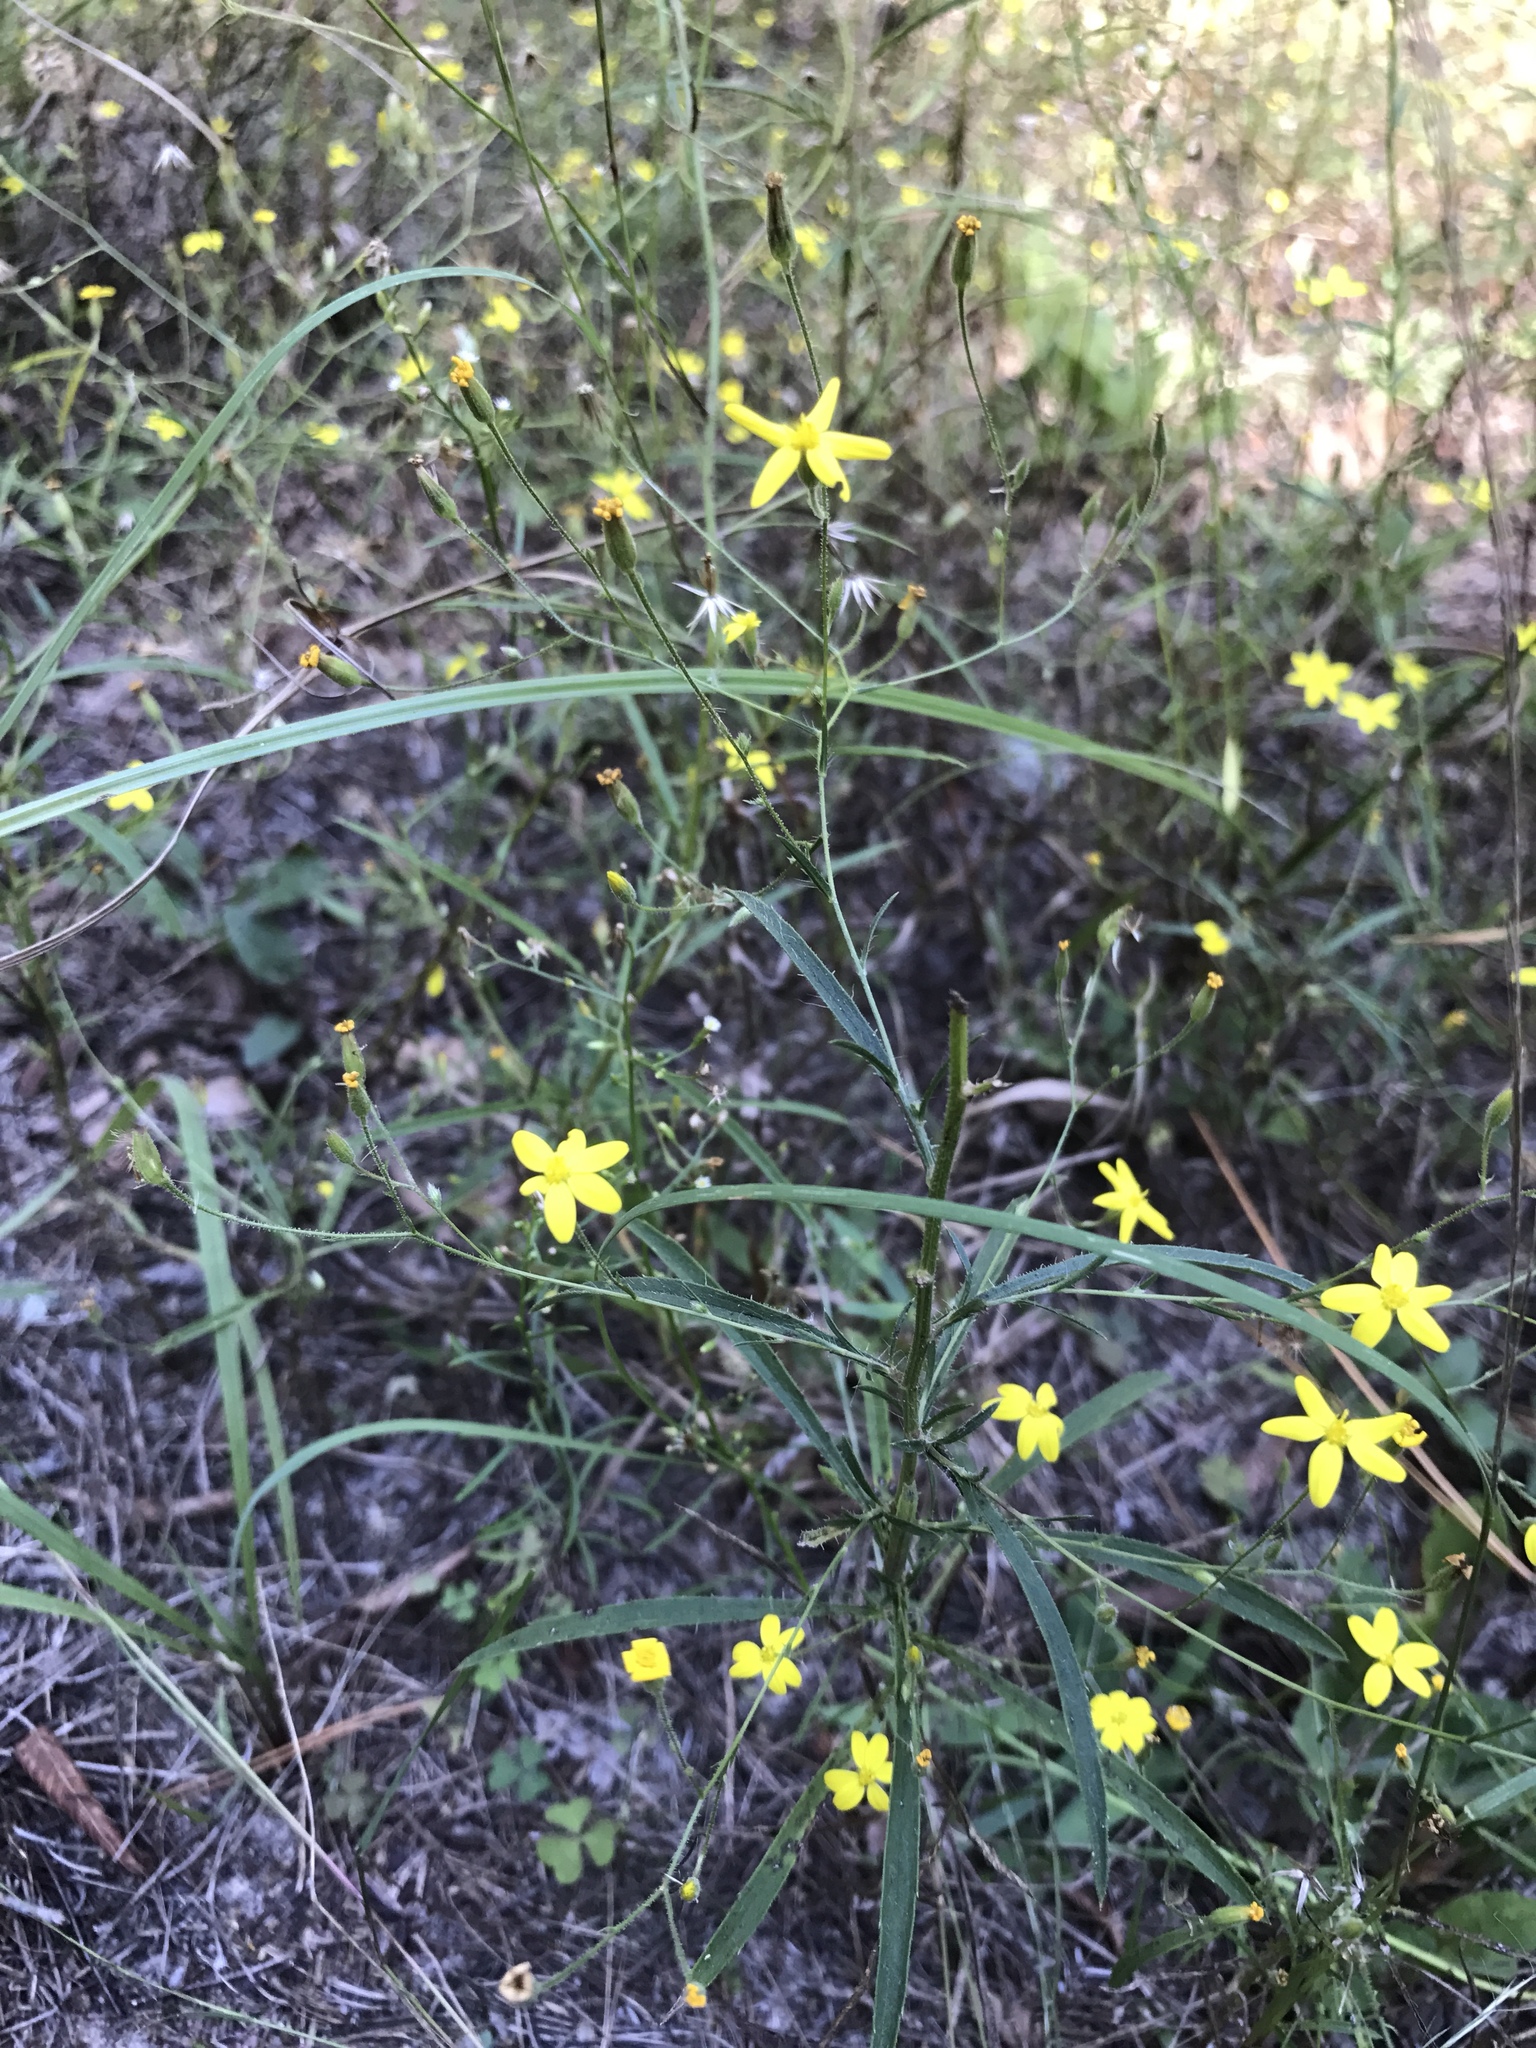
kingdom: Plantae
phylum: Tracheophyta
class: Magnoliopsida
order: Asterales
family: Asteraceae
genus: Croptilon
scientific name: Croptilon divaricatum
